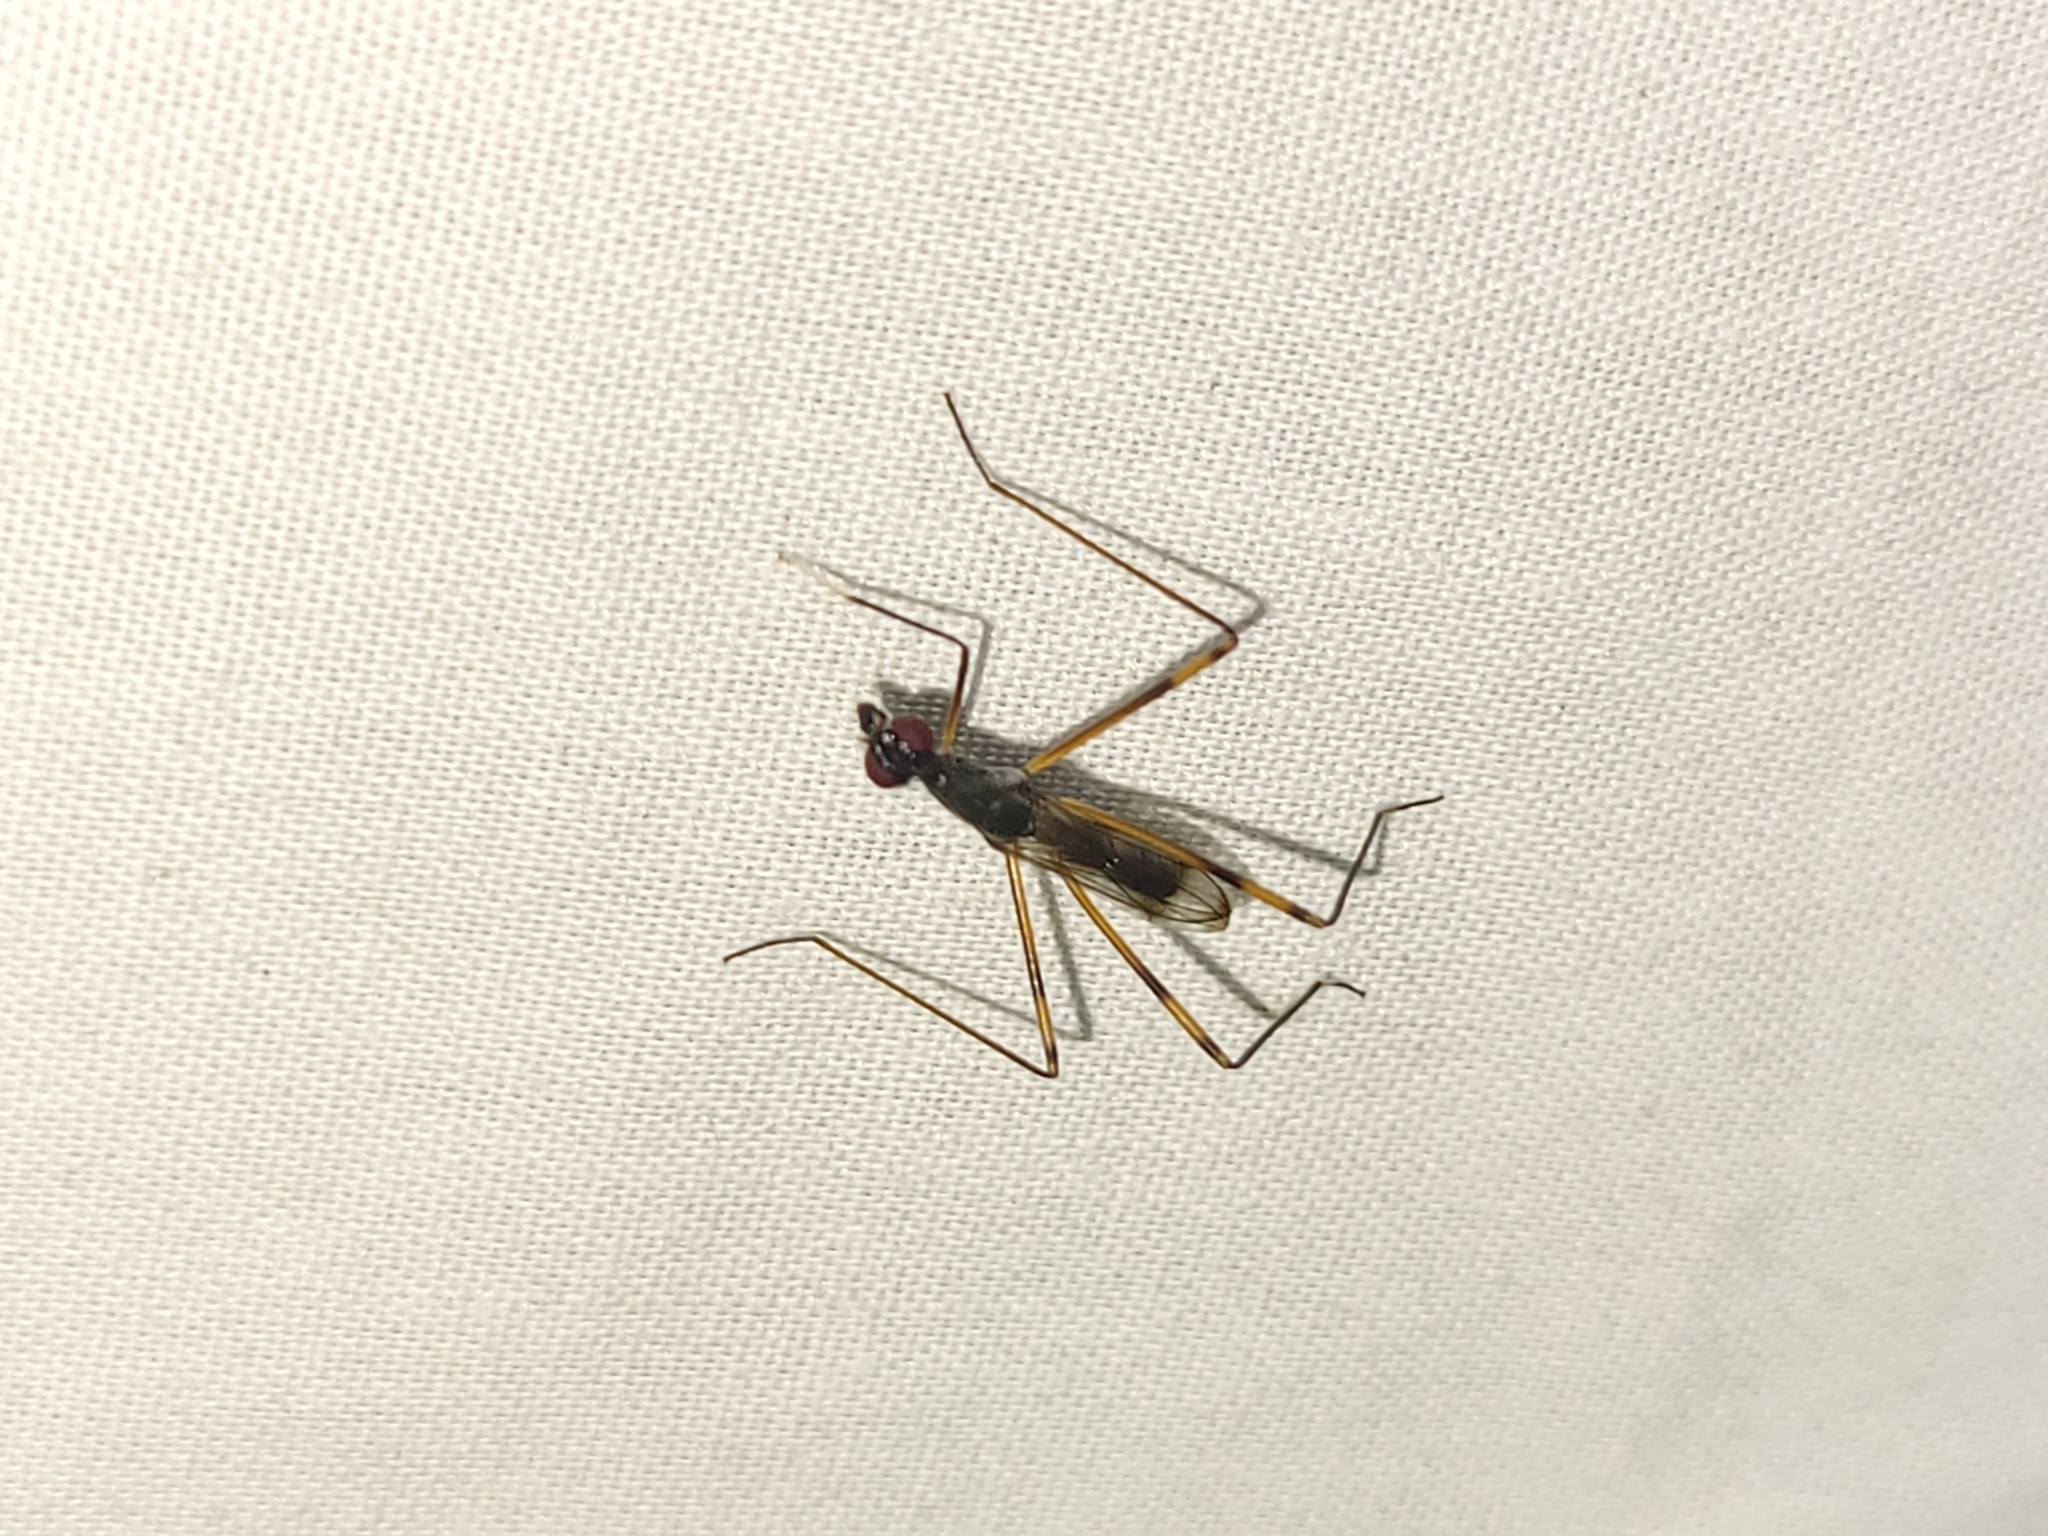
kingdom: Animalia
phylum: Arthropoda
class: Insecta
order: Diptera
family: Micropezidae
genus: Rainieria
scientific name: Rainieria antennaepes
